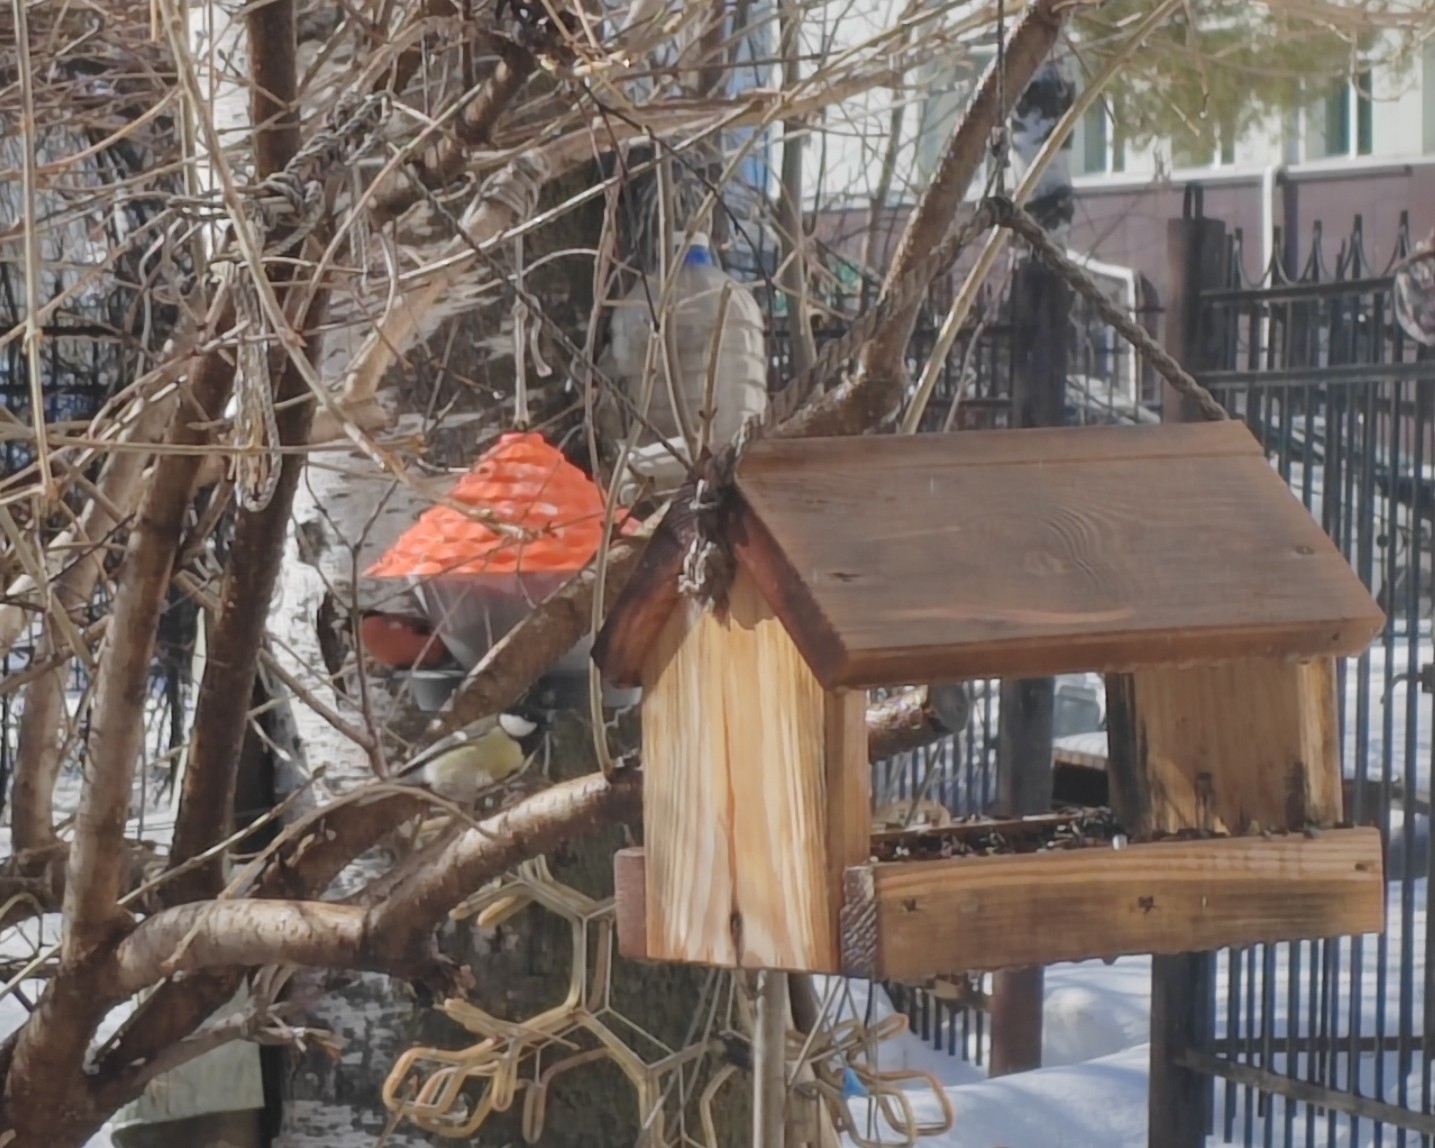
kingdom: Animalia
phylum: Chordata
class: Aves
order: Passeriformes
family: Fringillidae
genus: Pyrrhula
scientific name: Pyrrhula pyrrhula
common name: Eurasian bullfinch
